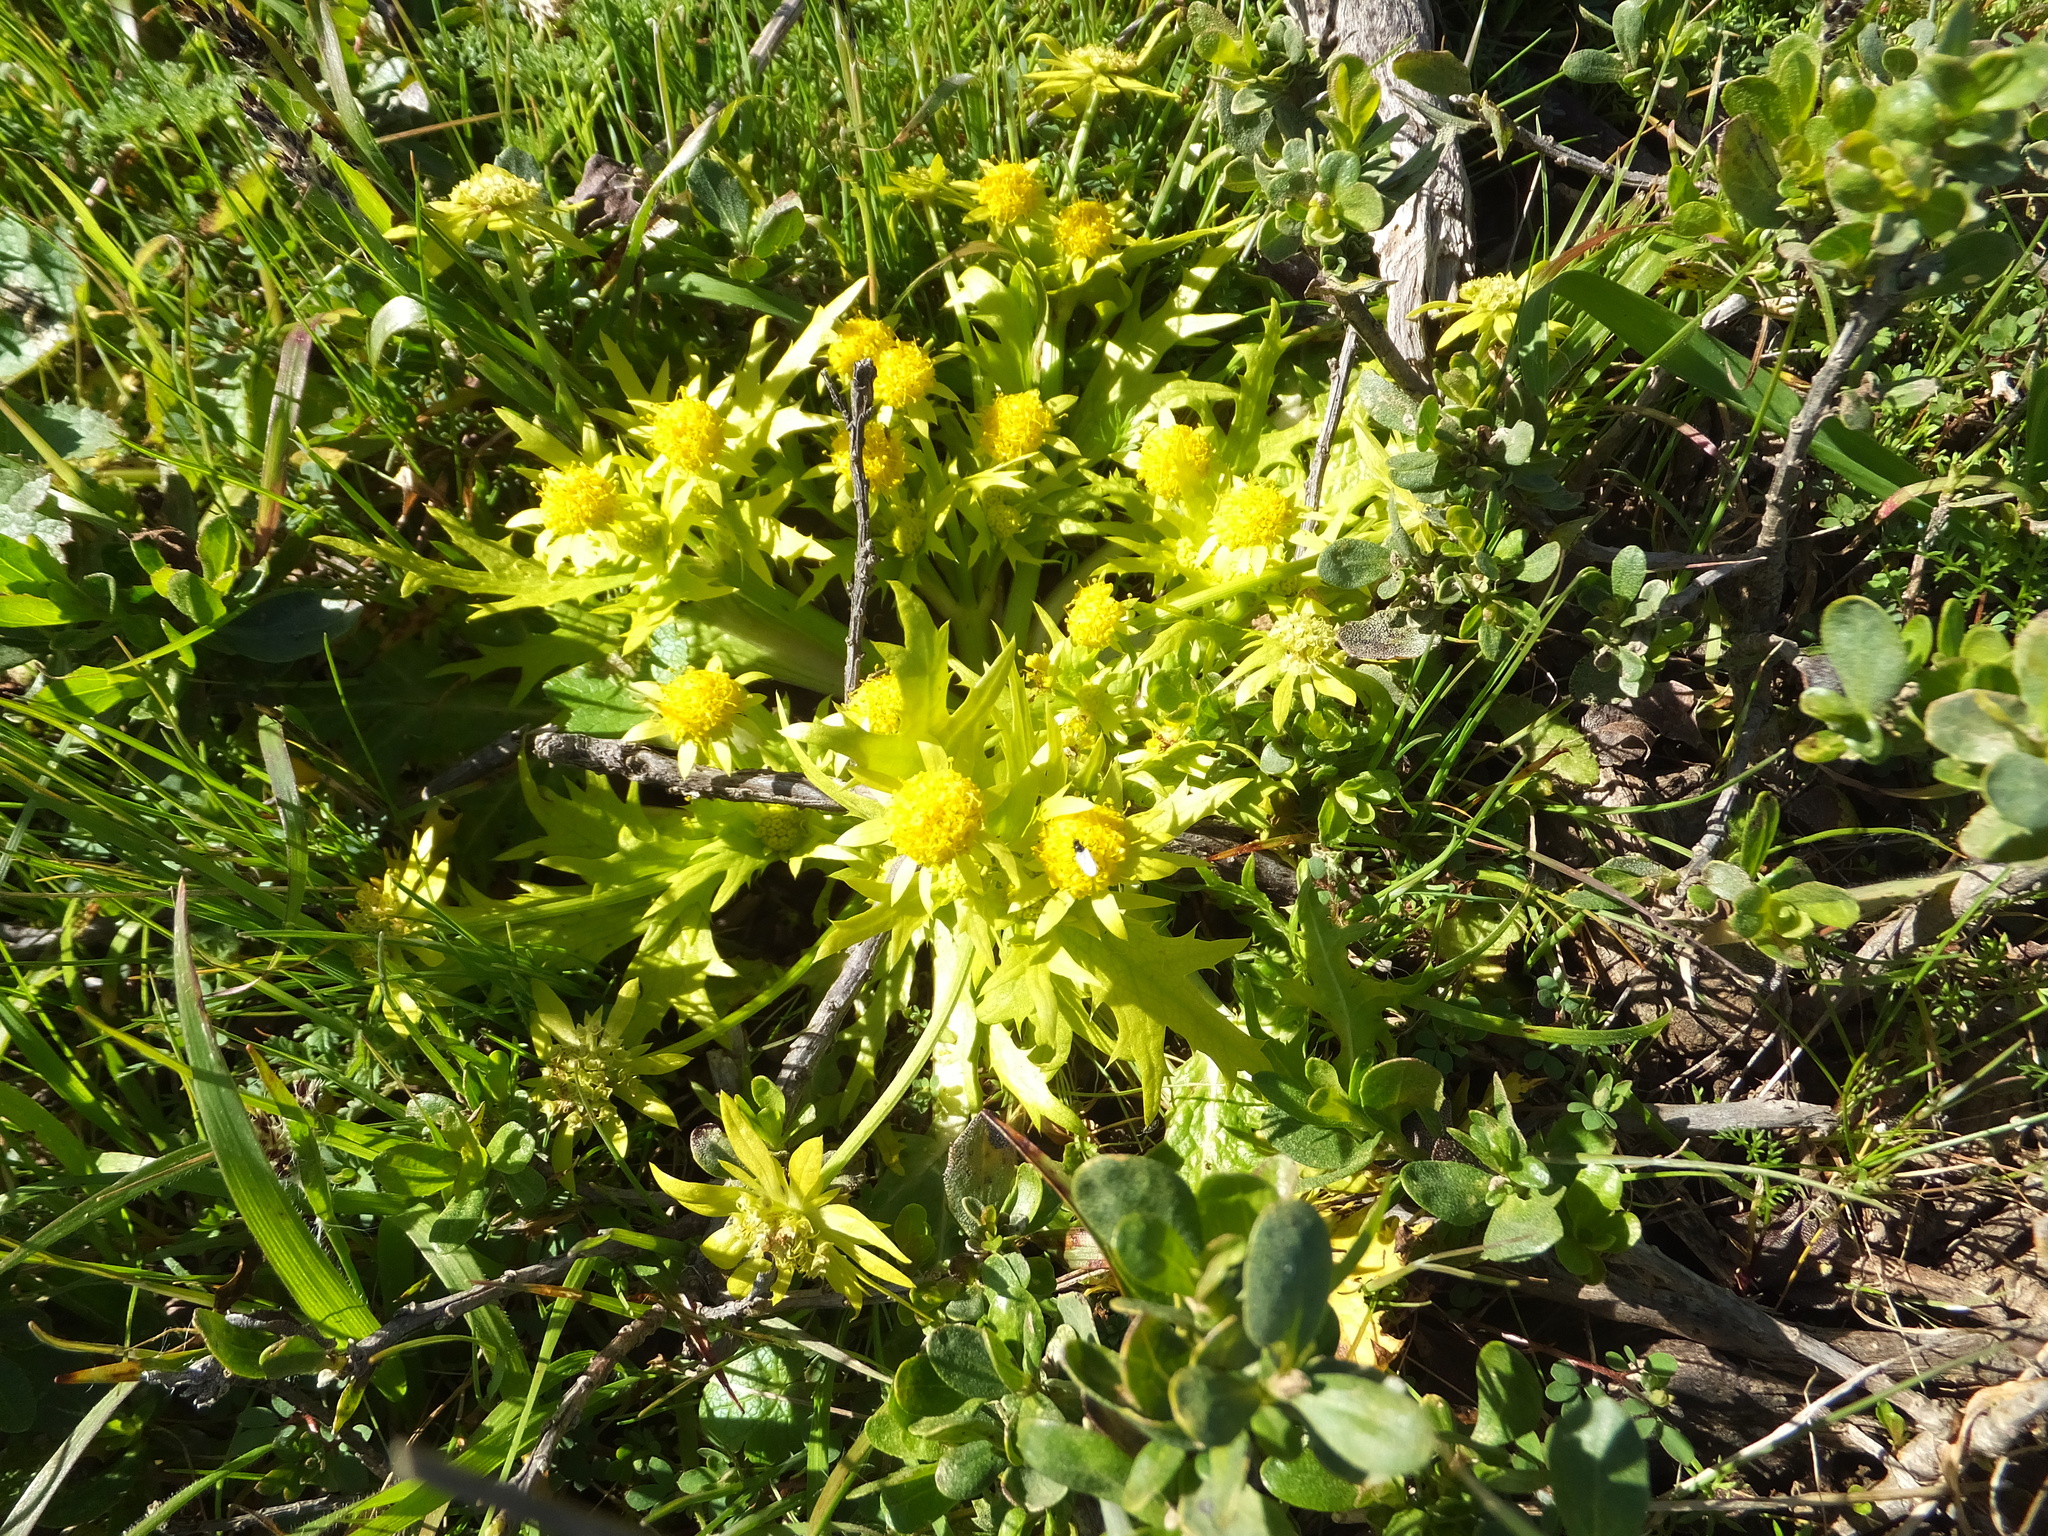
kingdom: Plantae
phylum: Tracheophyta
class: Magnoliopsida
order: Apiales
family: Apiaceae
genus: Sanicula
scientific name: Sanicula arctopoides
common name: Footsteps-of-spring
